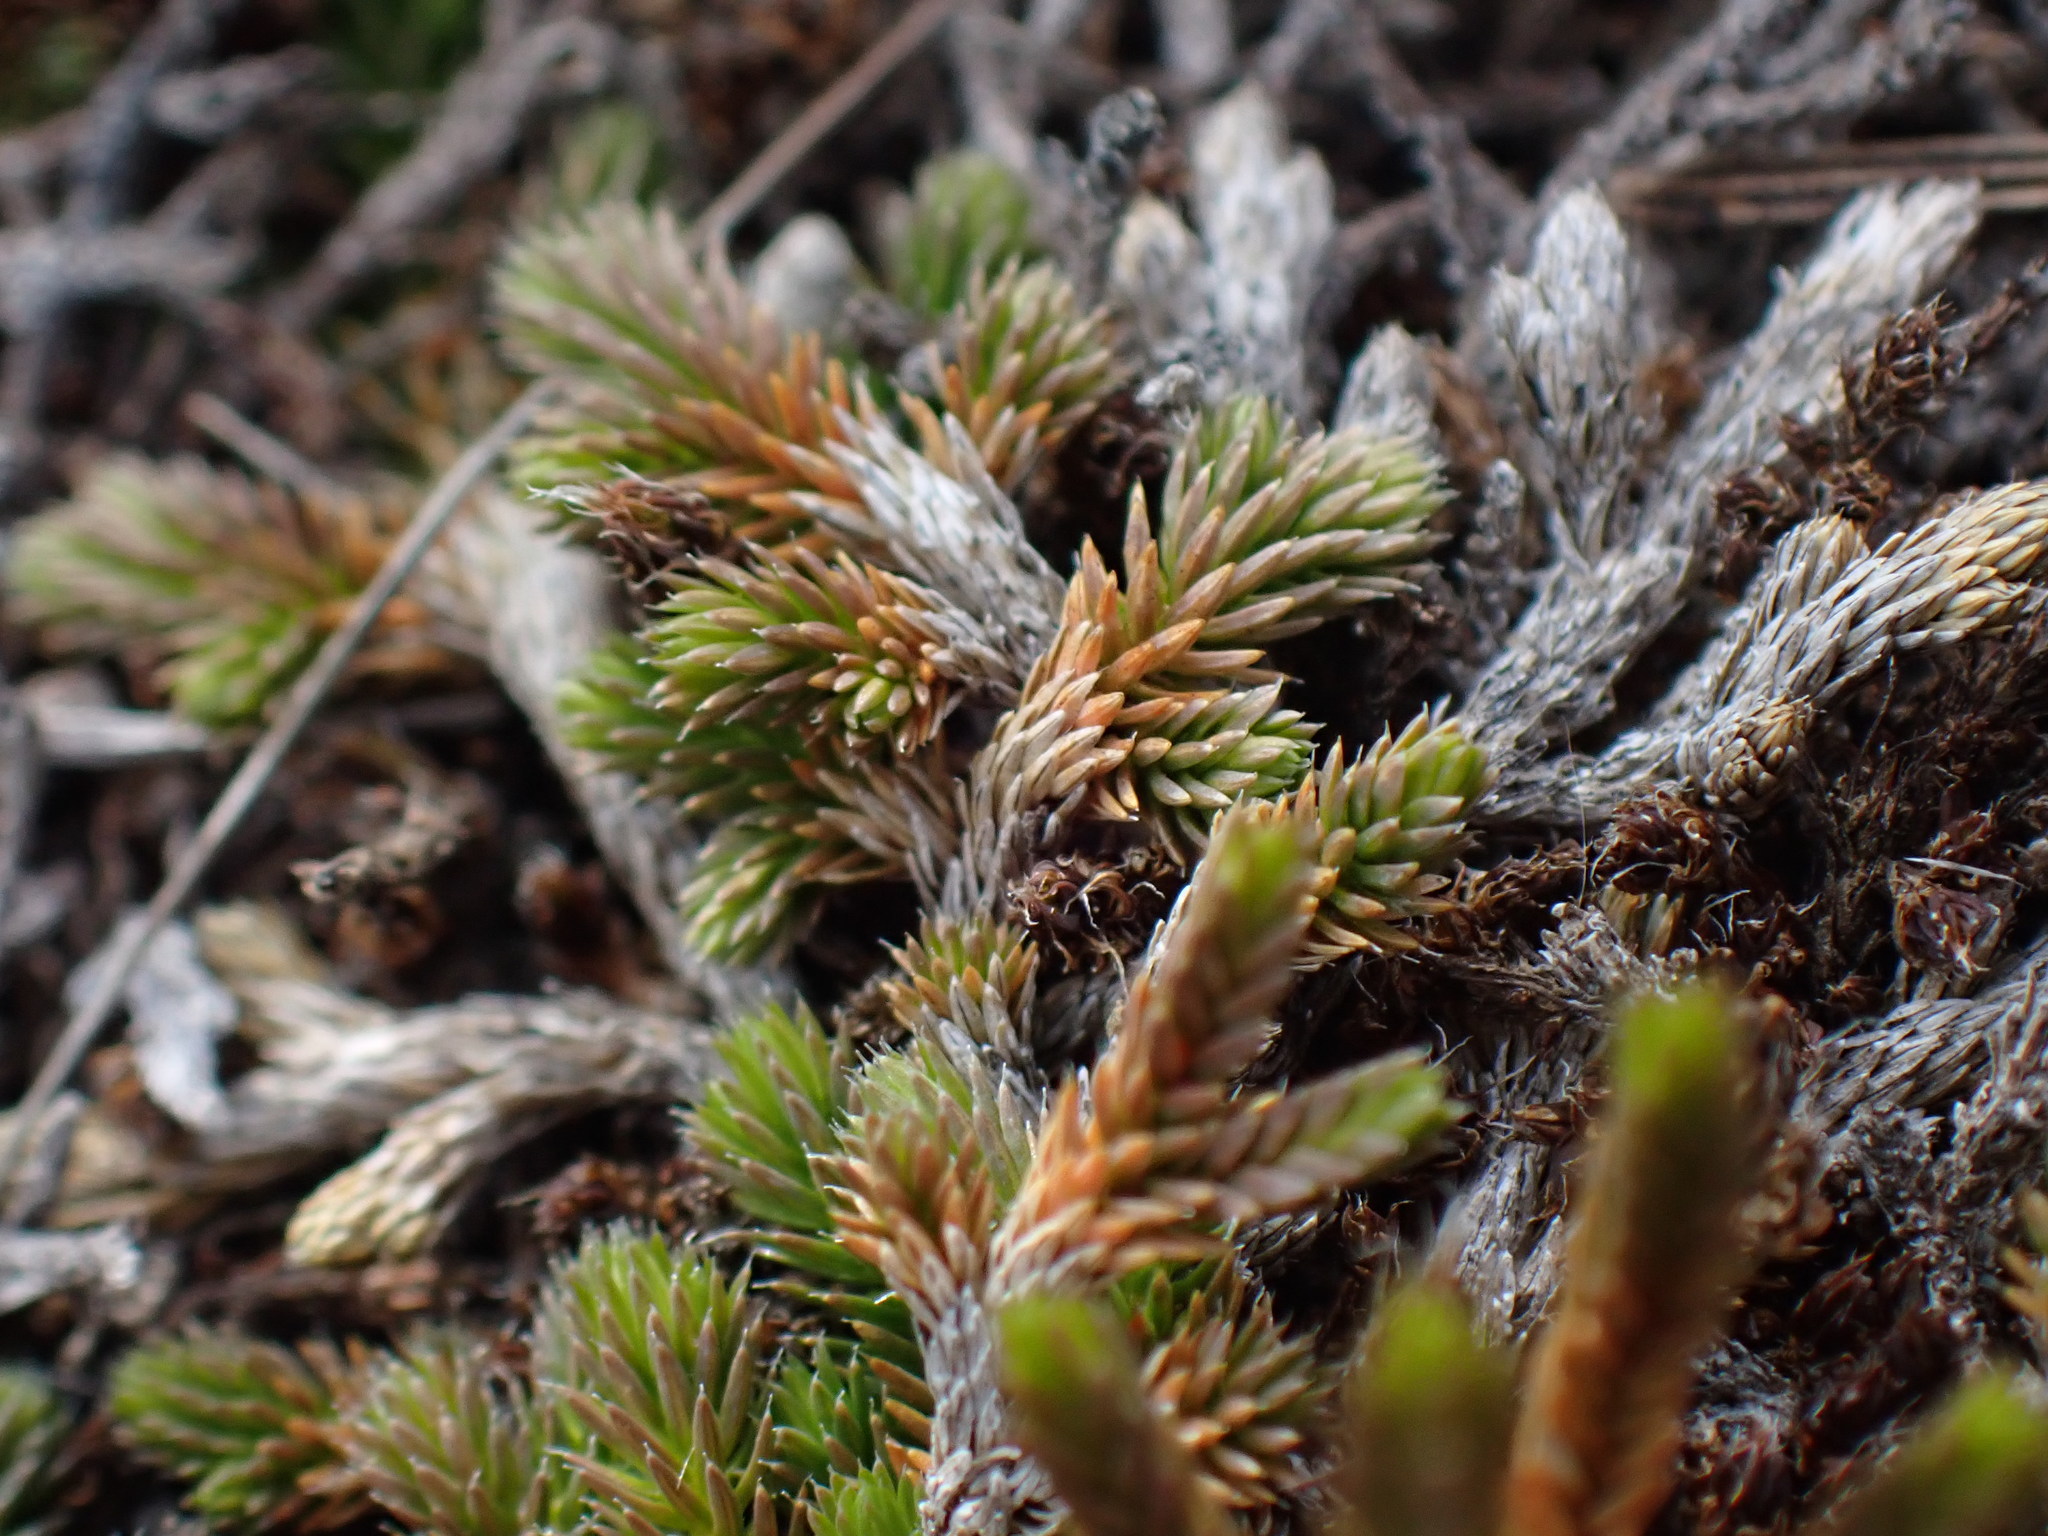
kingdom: Plantae
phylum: Tracheophyta
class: Lycopodiopsida
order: Selaginellales
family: Selaginellaceae
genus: Selaginella
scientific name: Selaginella wallacei
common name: Wallace's selaginella
